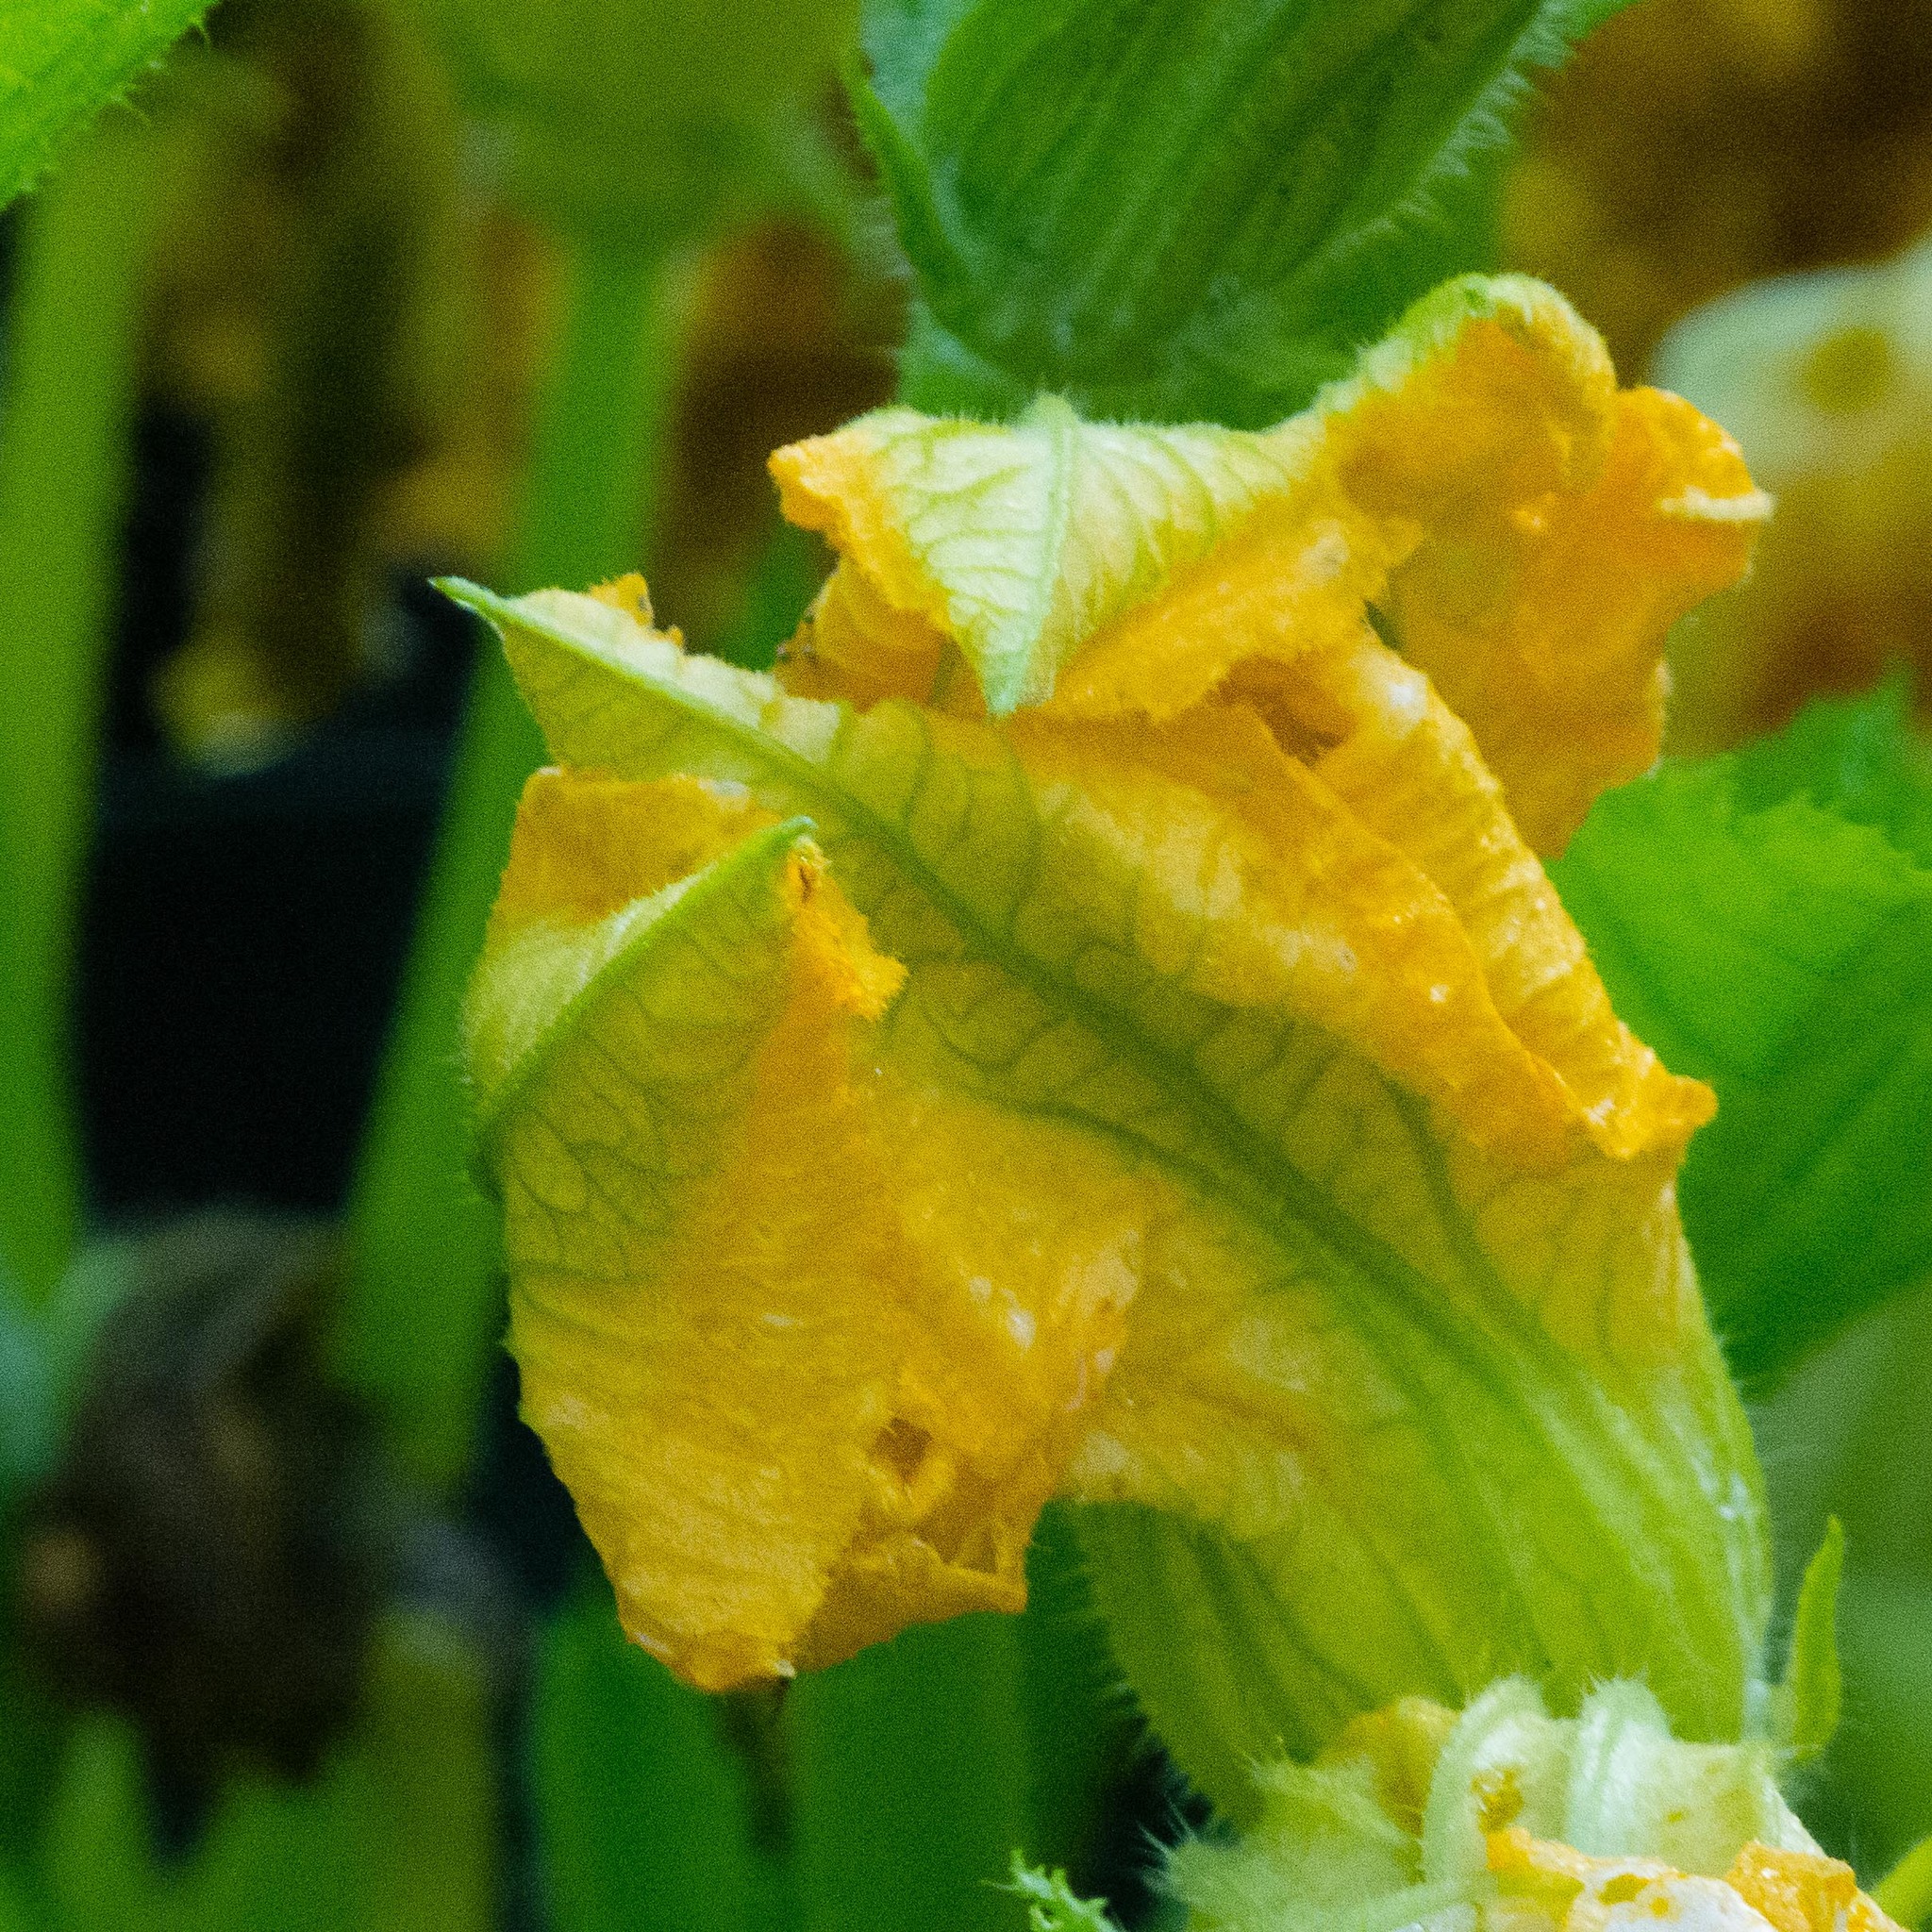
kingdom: Plantae
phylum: Tracheophyta
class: Magnoliopsida
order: Cucurbitales
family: Cucurbitaceae
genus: Cucurbita
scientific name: Cucurbita pepo
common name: Marrow
